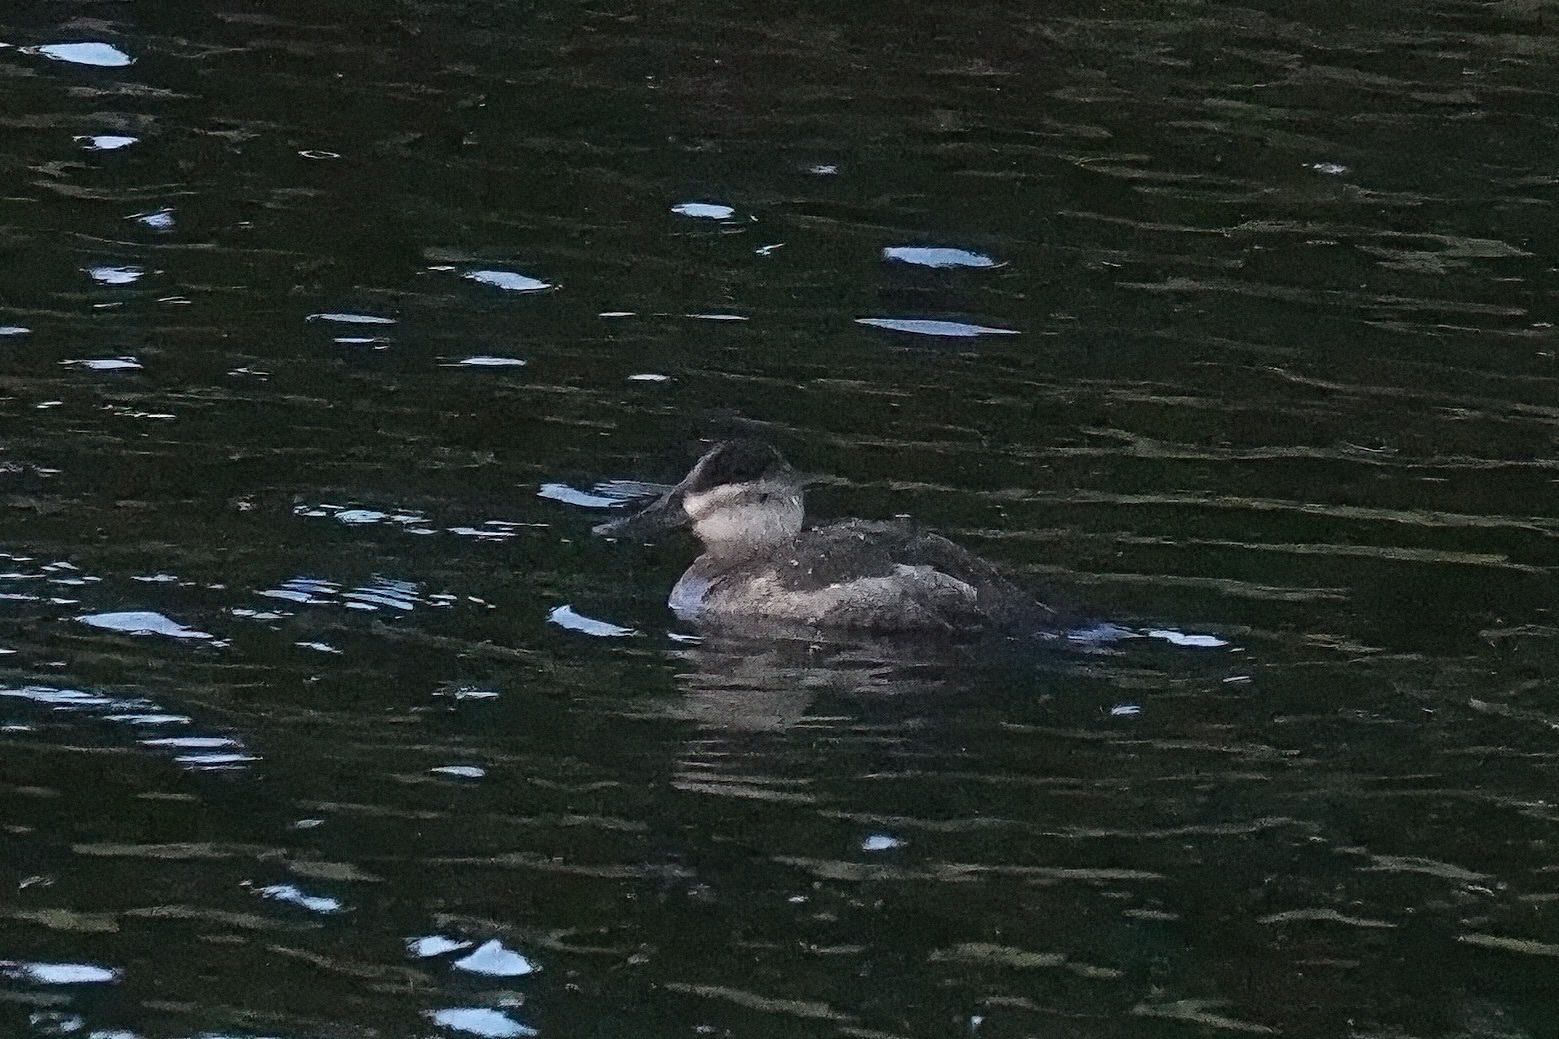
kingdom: Animalia
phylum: Chordata
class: Aves
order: Anseriformes
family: Anatidae
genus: Oxyura
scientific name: Oxyura jamaicensis
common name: Ruddy duck
